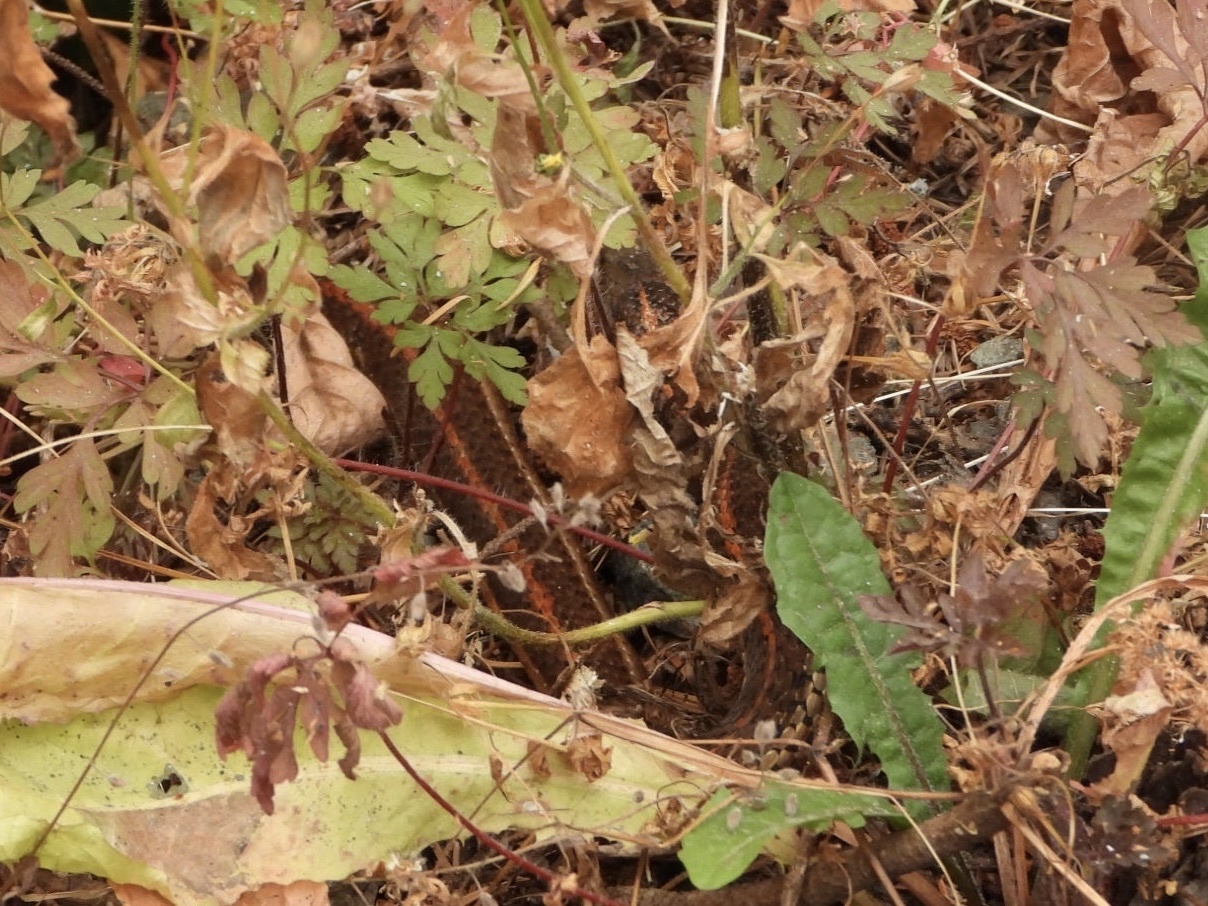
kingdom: Animalia
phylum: Chordata
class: Squamata
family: Colubridae
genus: Thamnophis
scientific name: Thamnophis ordinoides
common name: Northwestern garter snake
